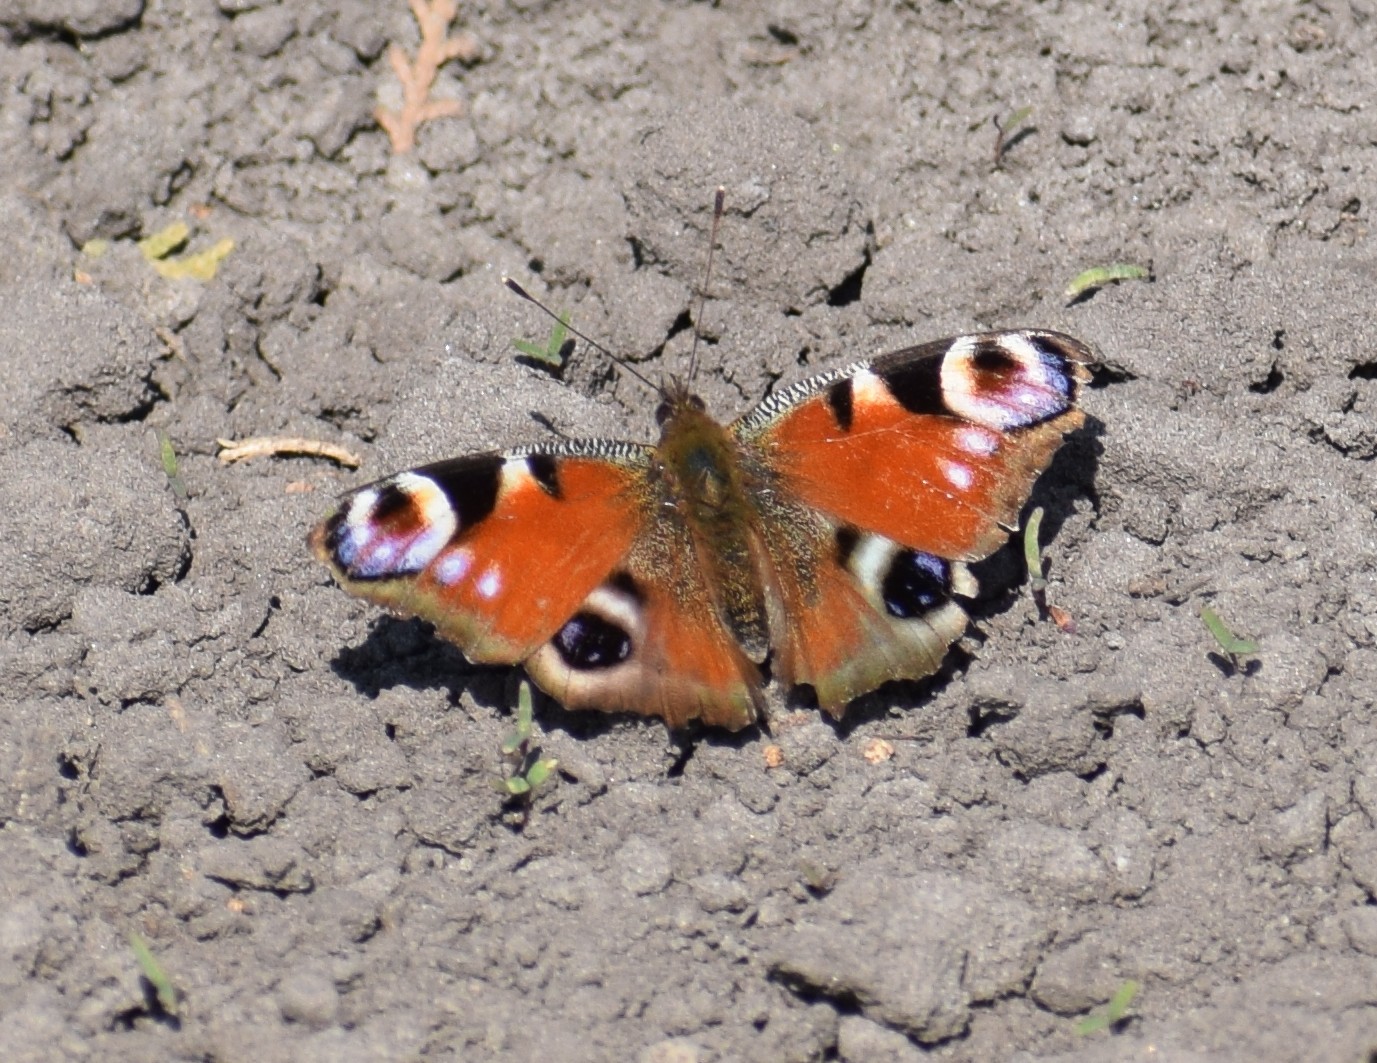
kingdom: Animalia
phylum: Arthropoda
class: Insecta
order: Lepidoptera
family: Nymphalidae
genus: Aglais
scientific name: Aglais io
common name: Peacock
